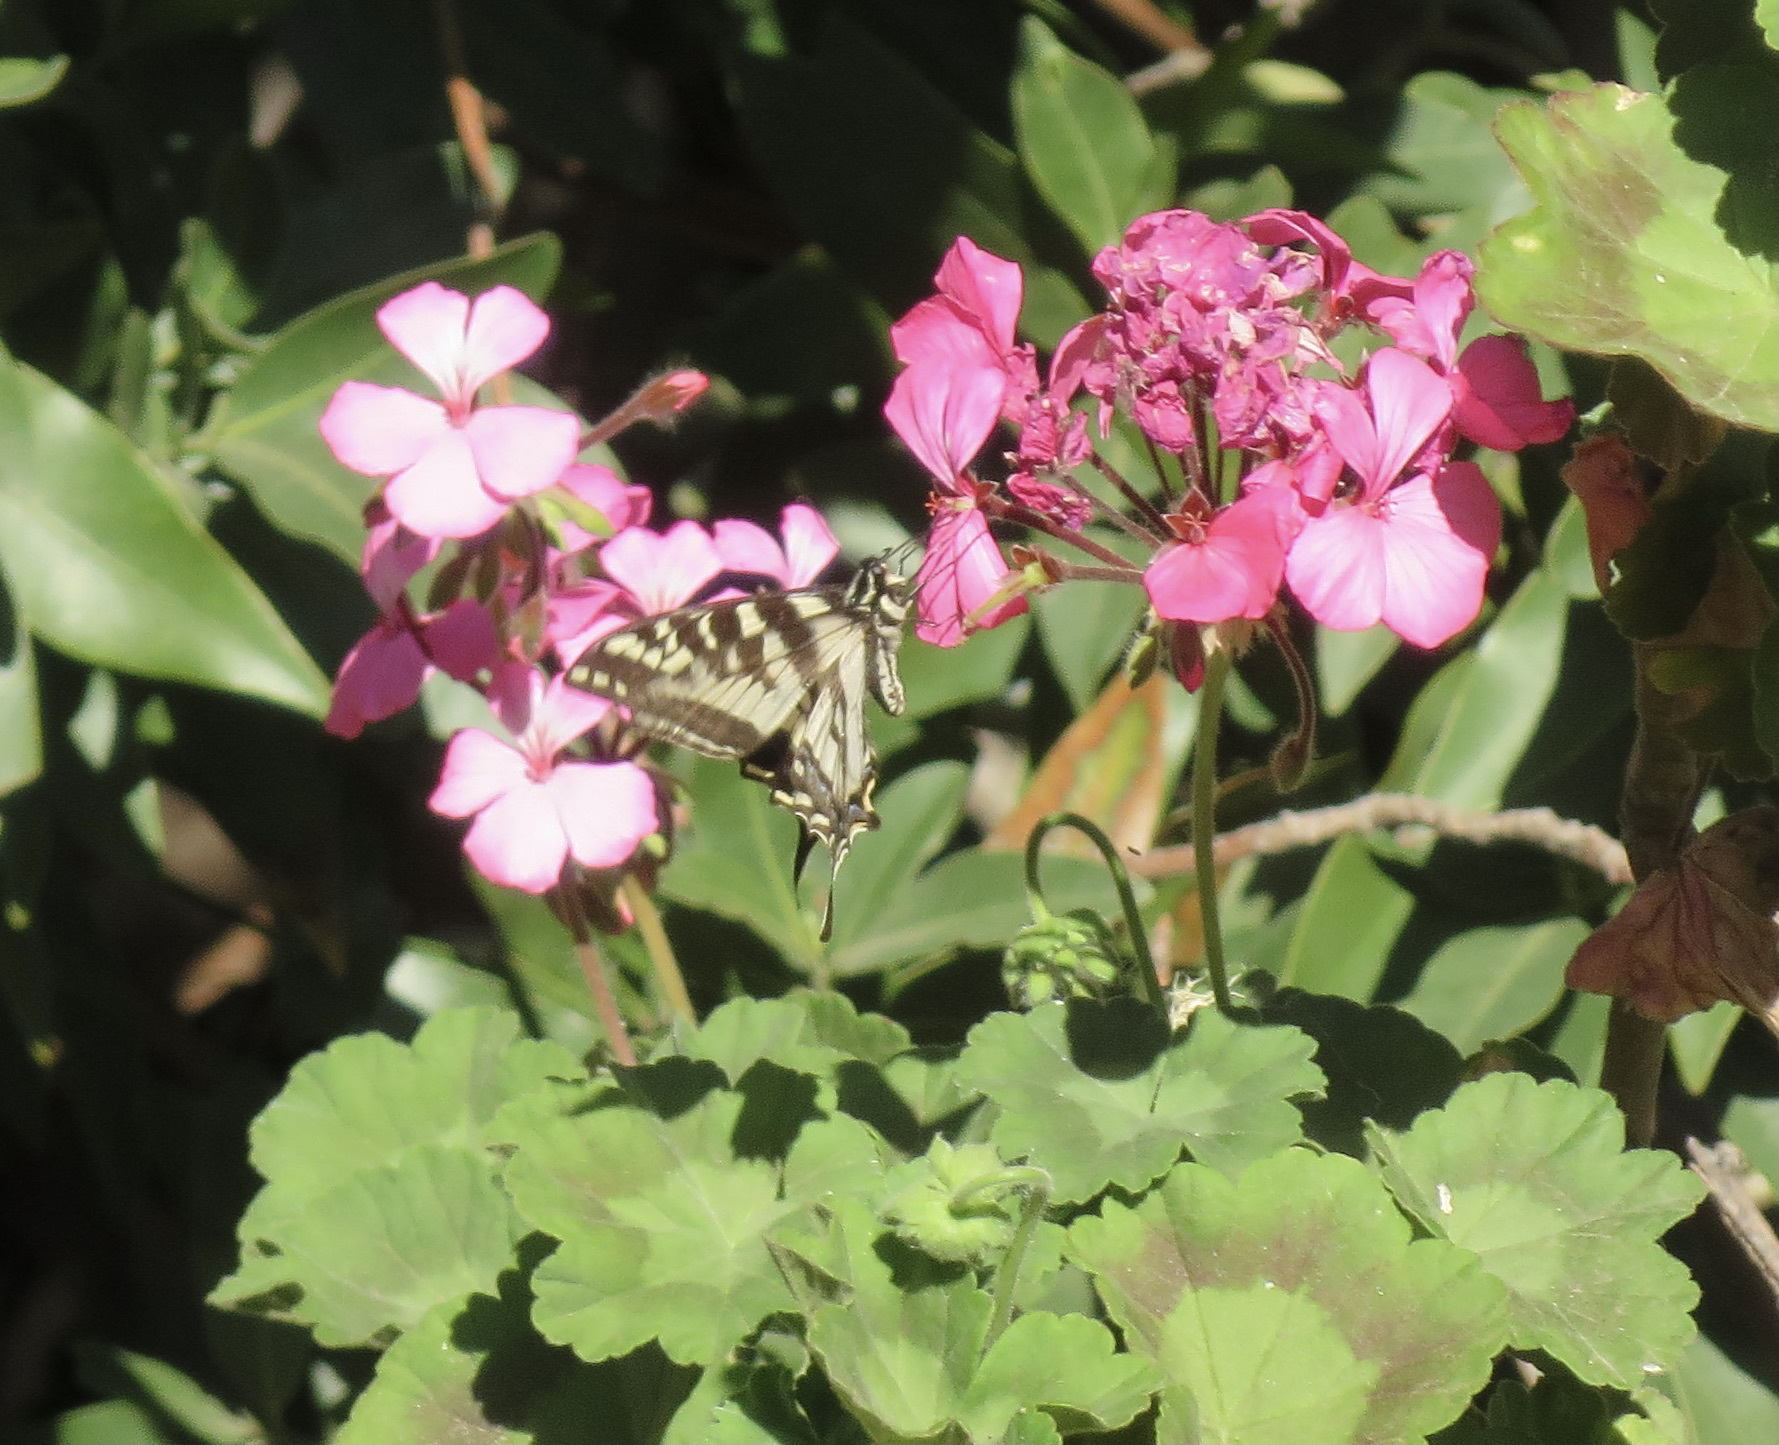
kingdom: Animalia
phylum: Arthropoda
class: Insecta
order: Lepidoptera
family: Papilionidae
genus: Papilio
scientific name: Papilio eurymedon
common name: Pale tiger swallowtail
